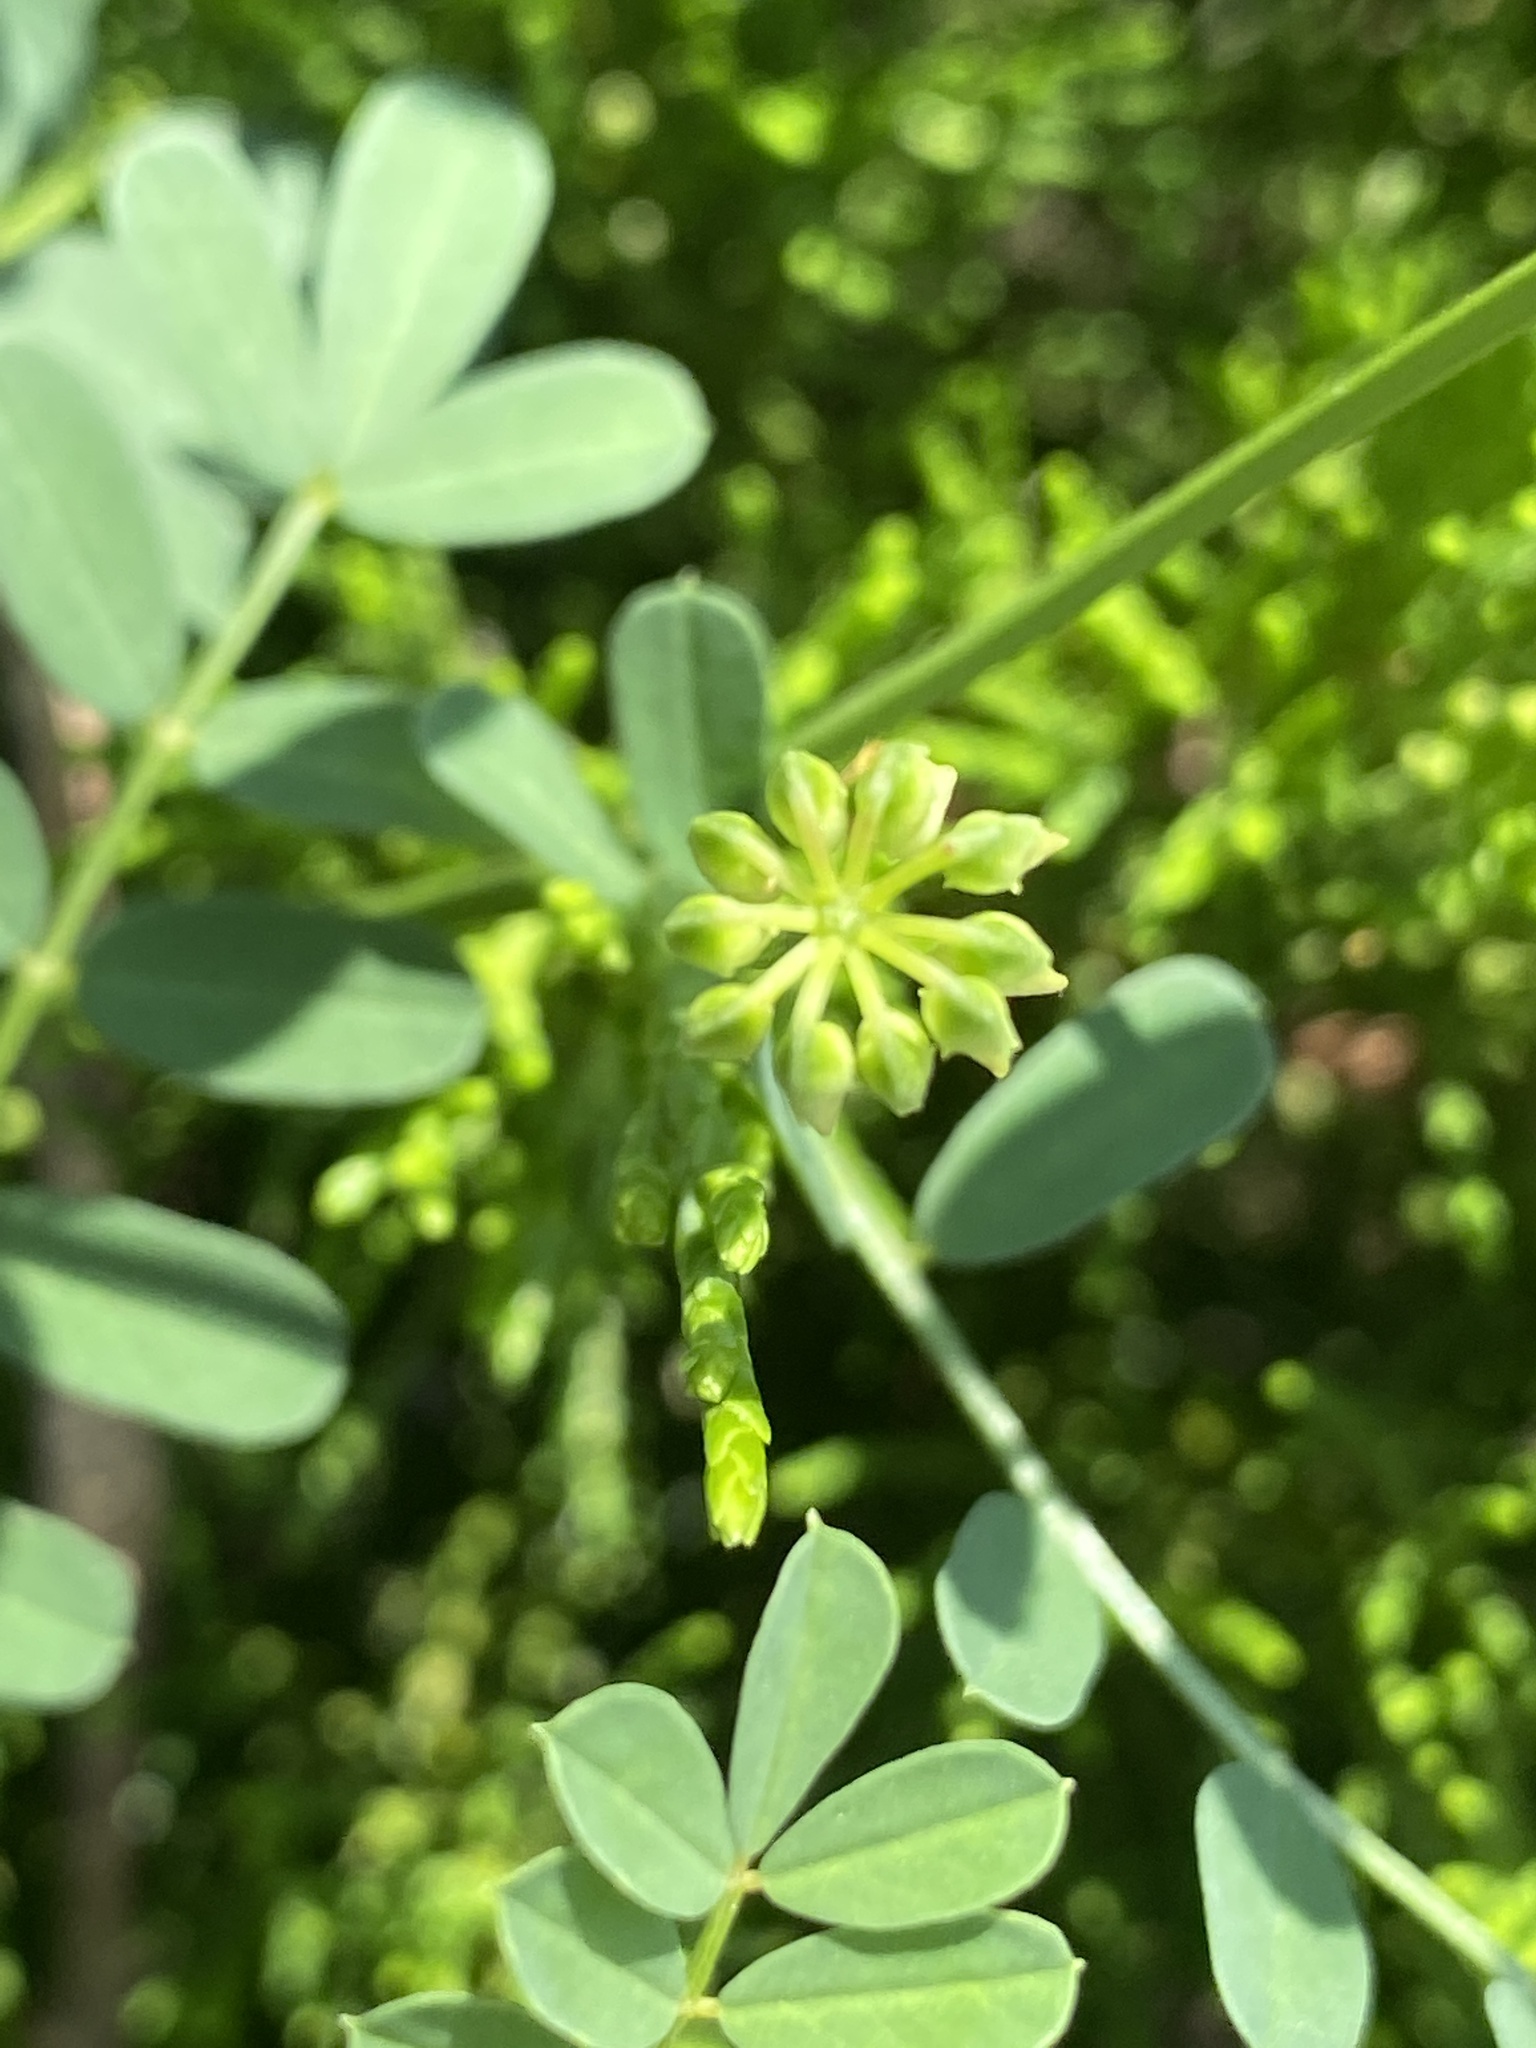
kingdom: Plantae
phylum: Tracheophyta
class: Magnoliopsida
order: Fabales
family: Fabaceae
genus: Coronilla
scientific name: Coronilla varia
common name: Crownvetch
